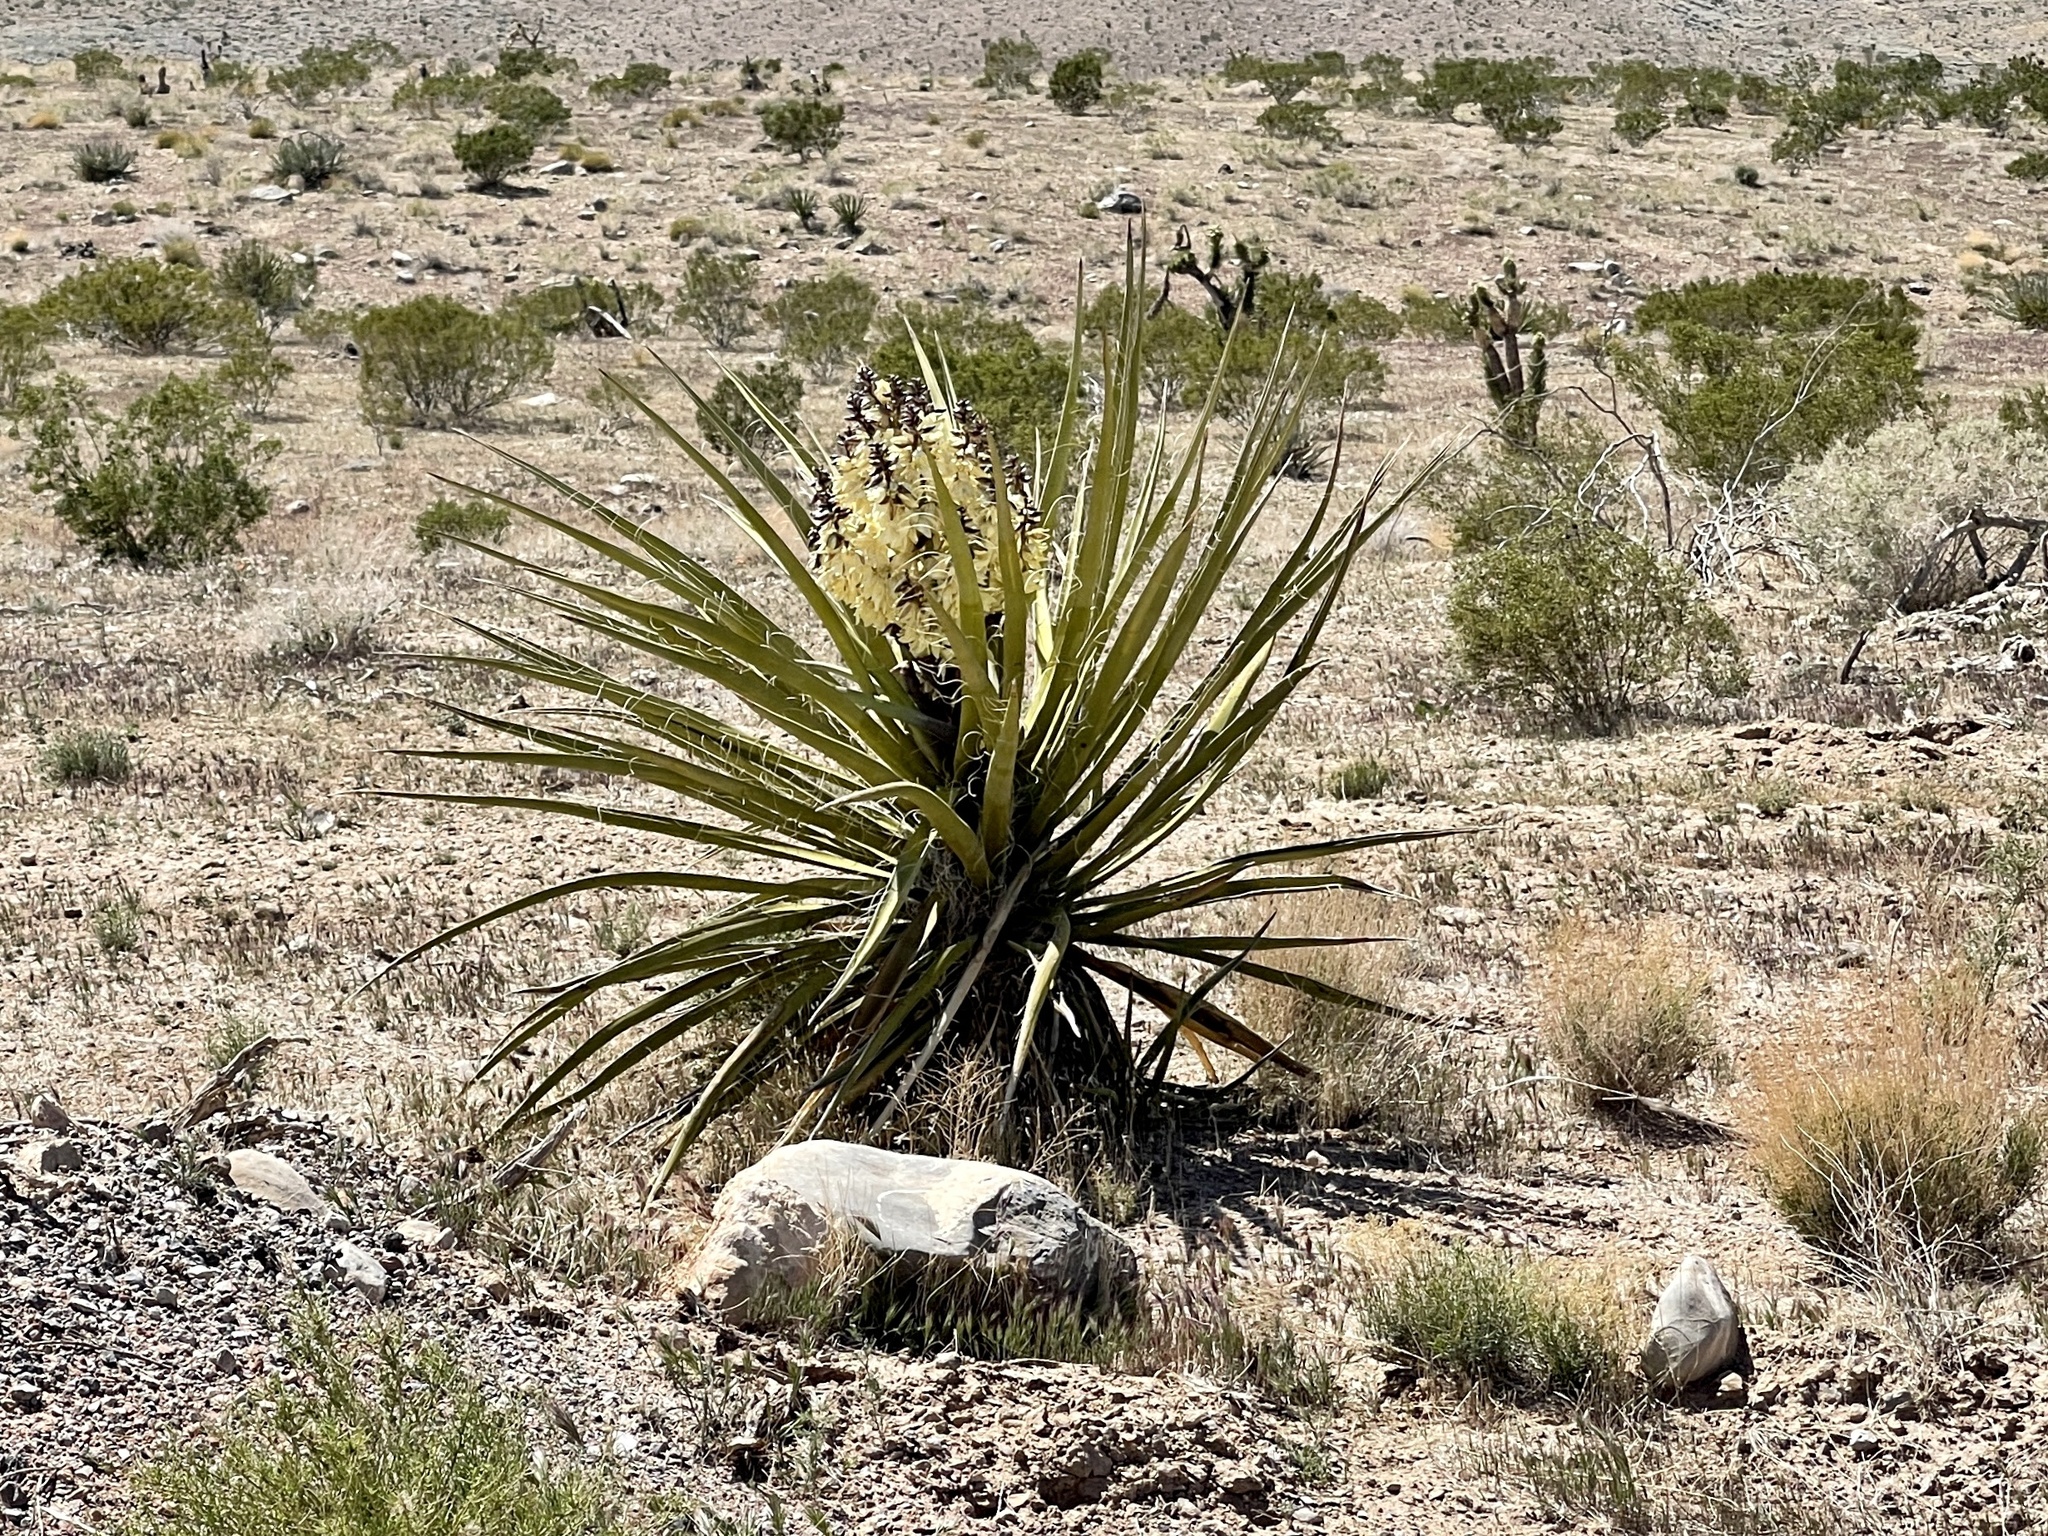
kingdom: Plantae
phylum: Tracheophyta
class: Liliopsida
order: Asparagales
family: Asparagaceae
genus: Yucca
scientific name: Yucca schidigera
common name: Mojave yucca
